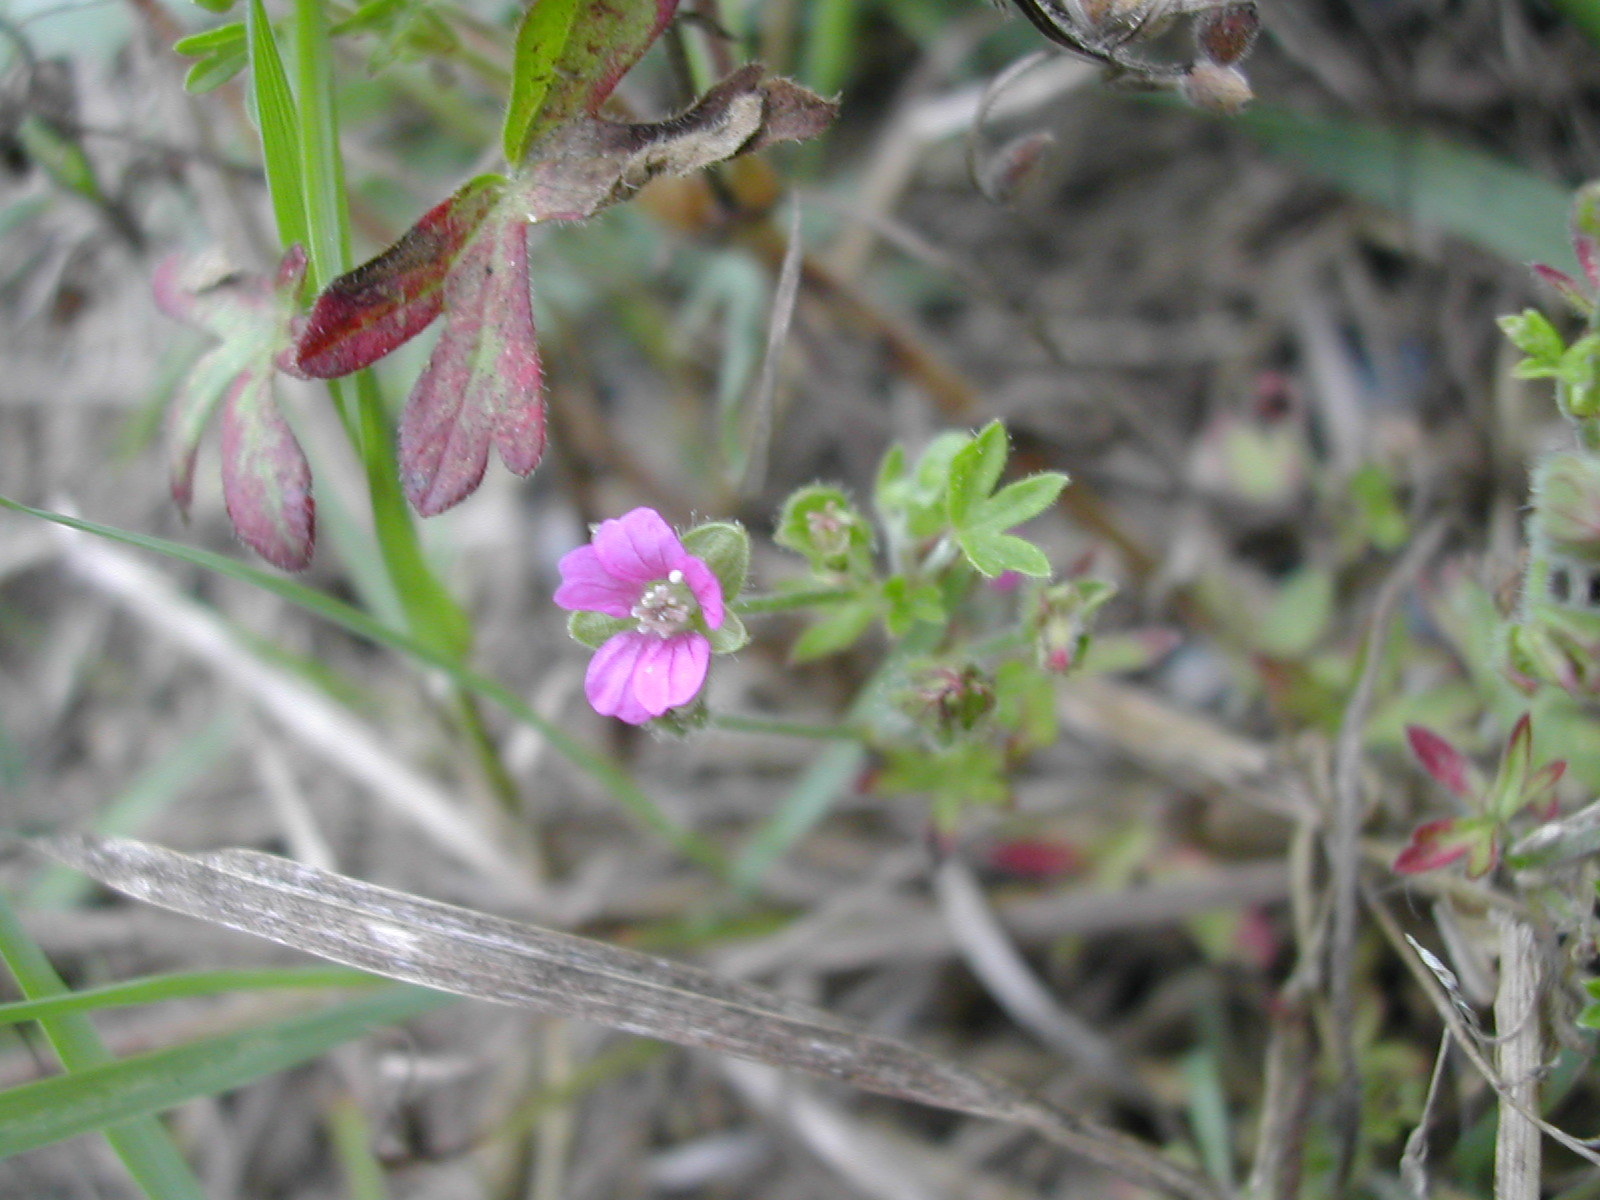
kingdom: Plantae
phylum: Tracheophyta
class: Magnoliopsida
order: Geraniales
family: Geraniaceae
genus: Geranium
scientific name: Geranium dissectum
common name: Cut-leaved crane's-bill
